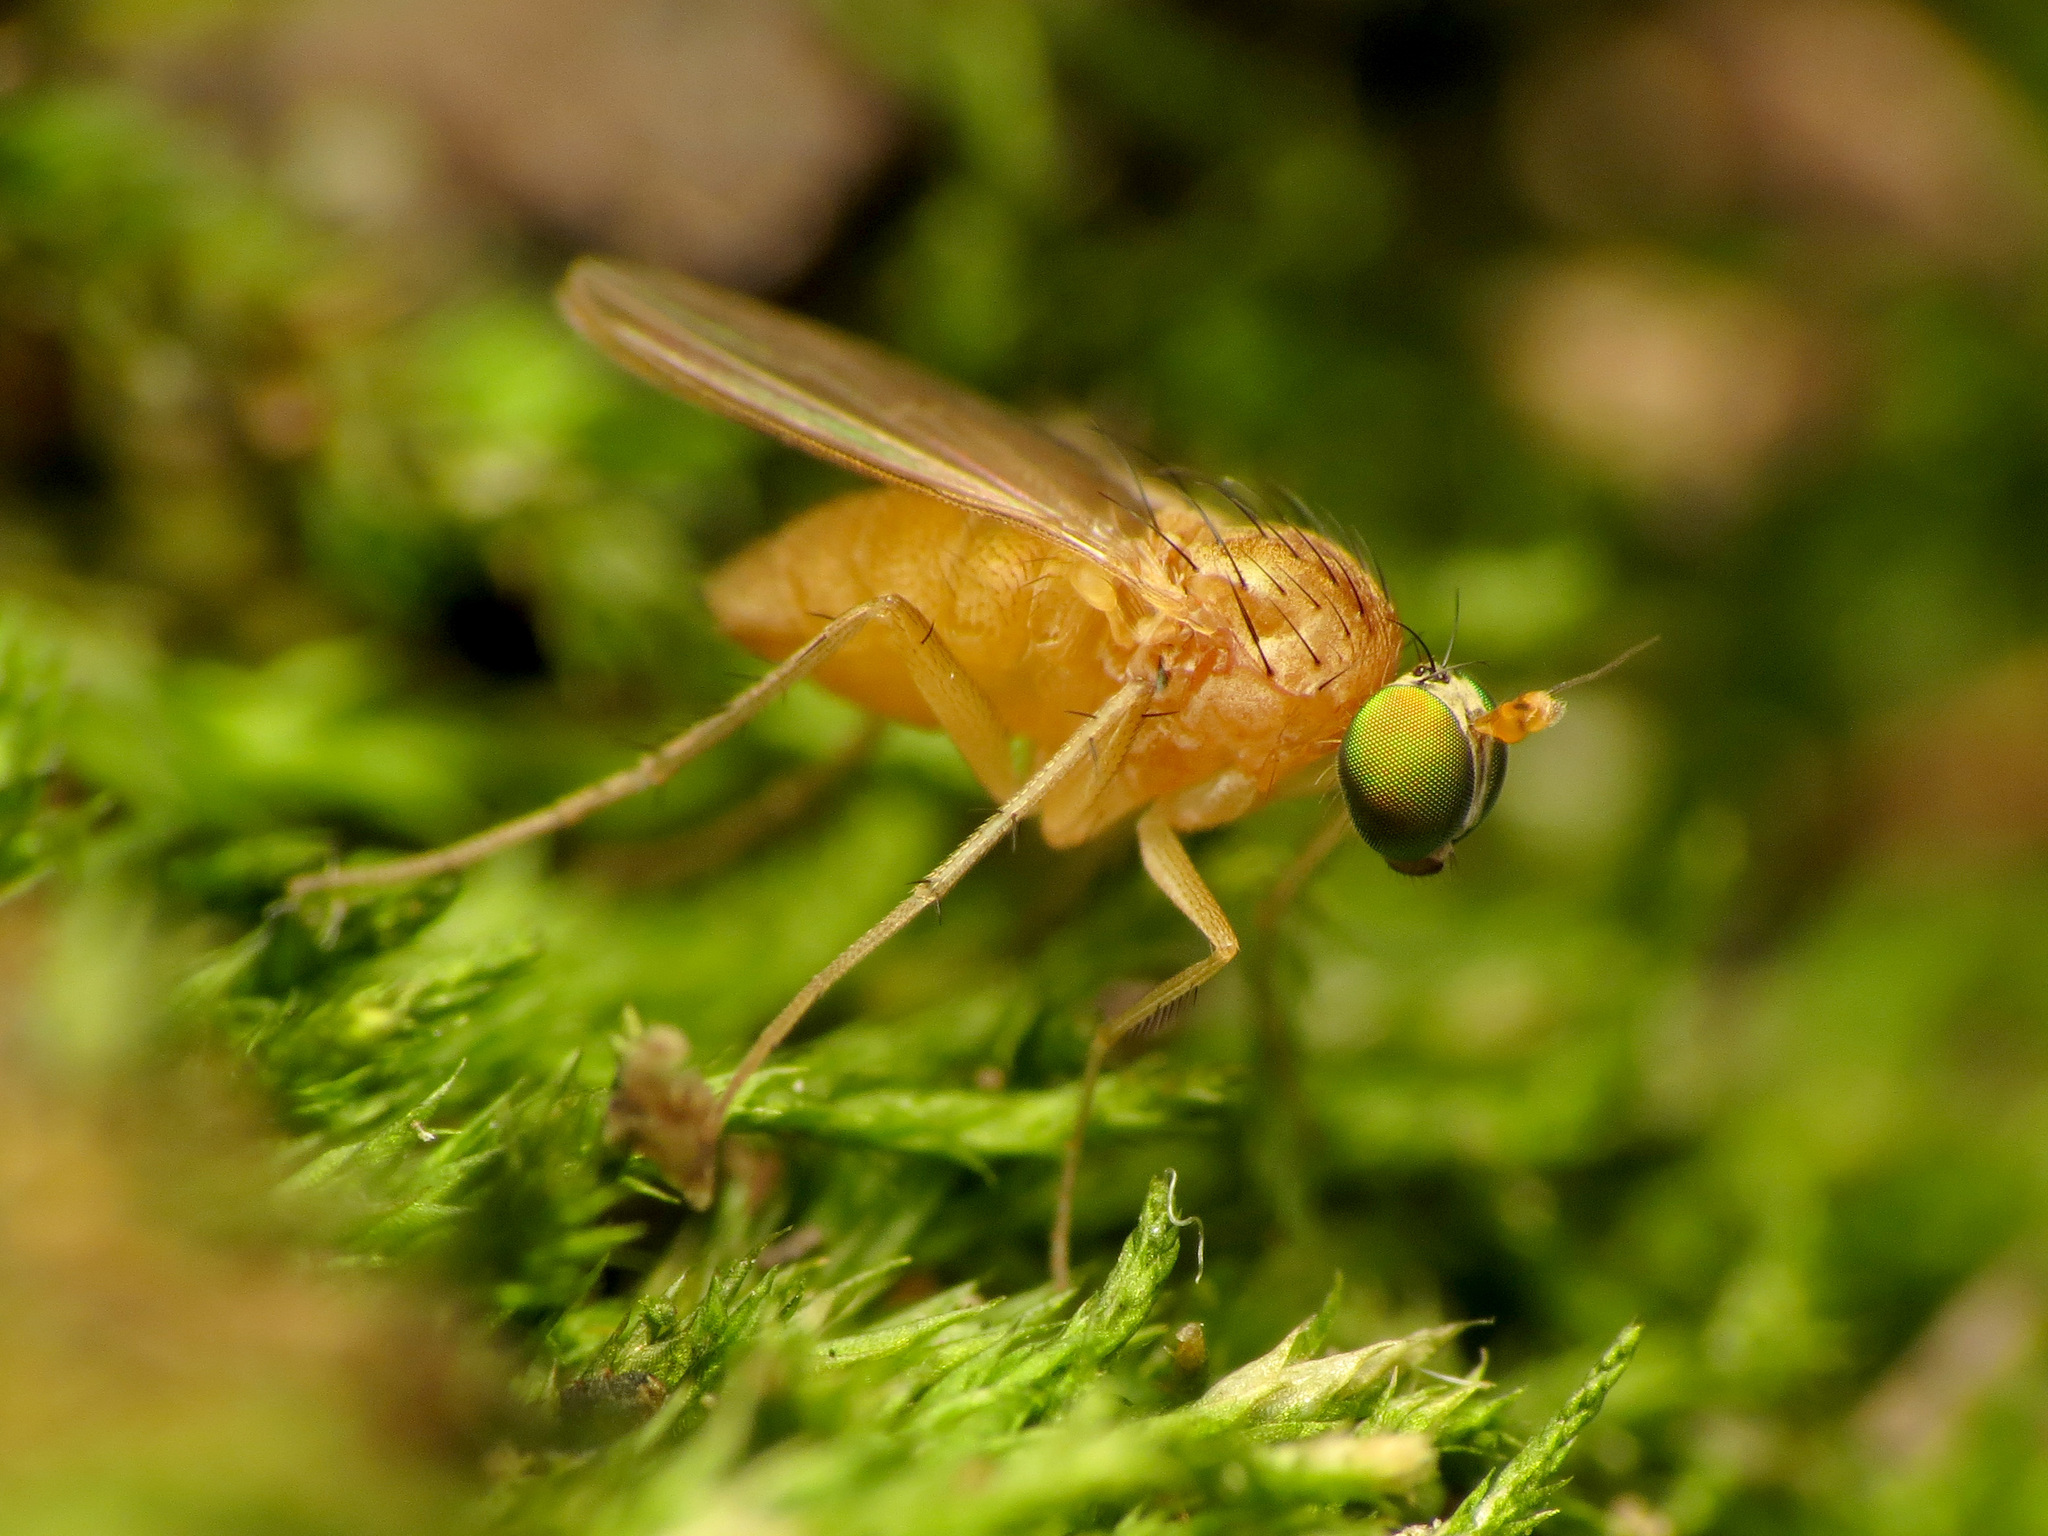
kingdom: Animalia
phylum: Arthropoda
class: Insecta
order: Diptera
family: Dolichopodidae
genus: Gymnopternus
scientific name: Gymnopternus flavus
